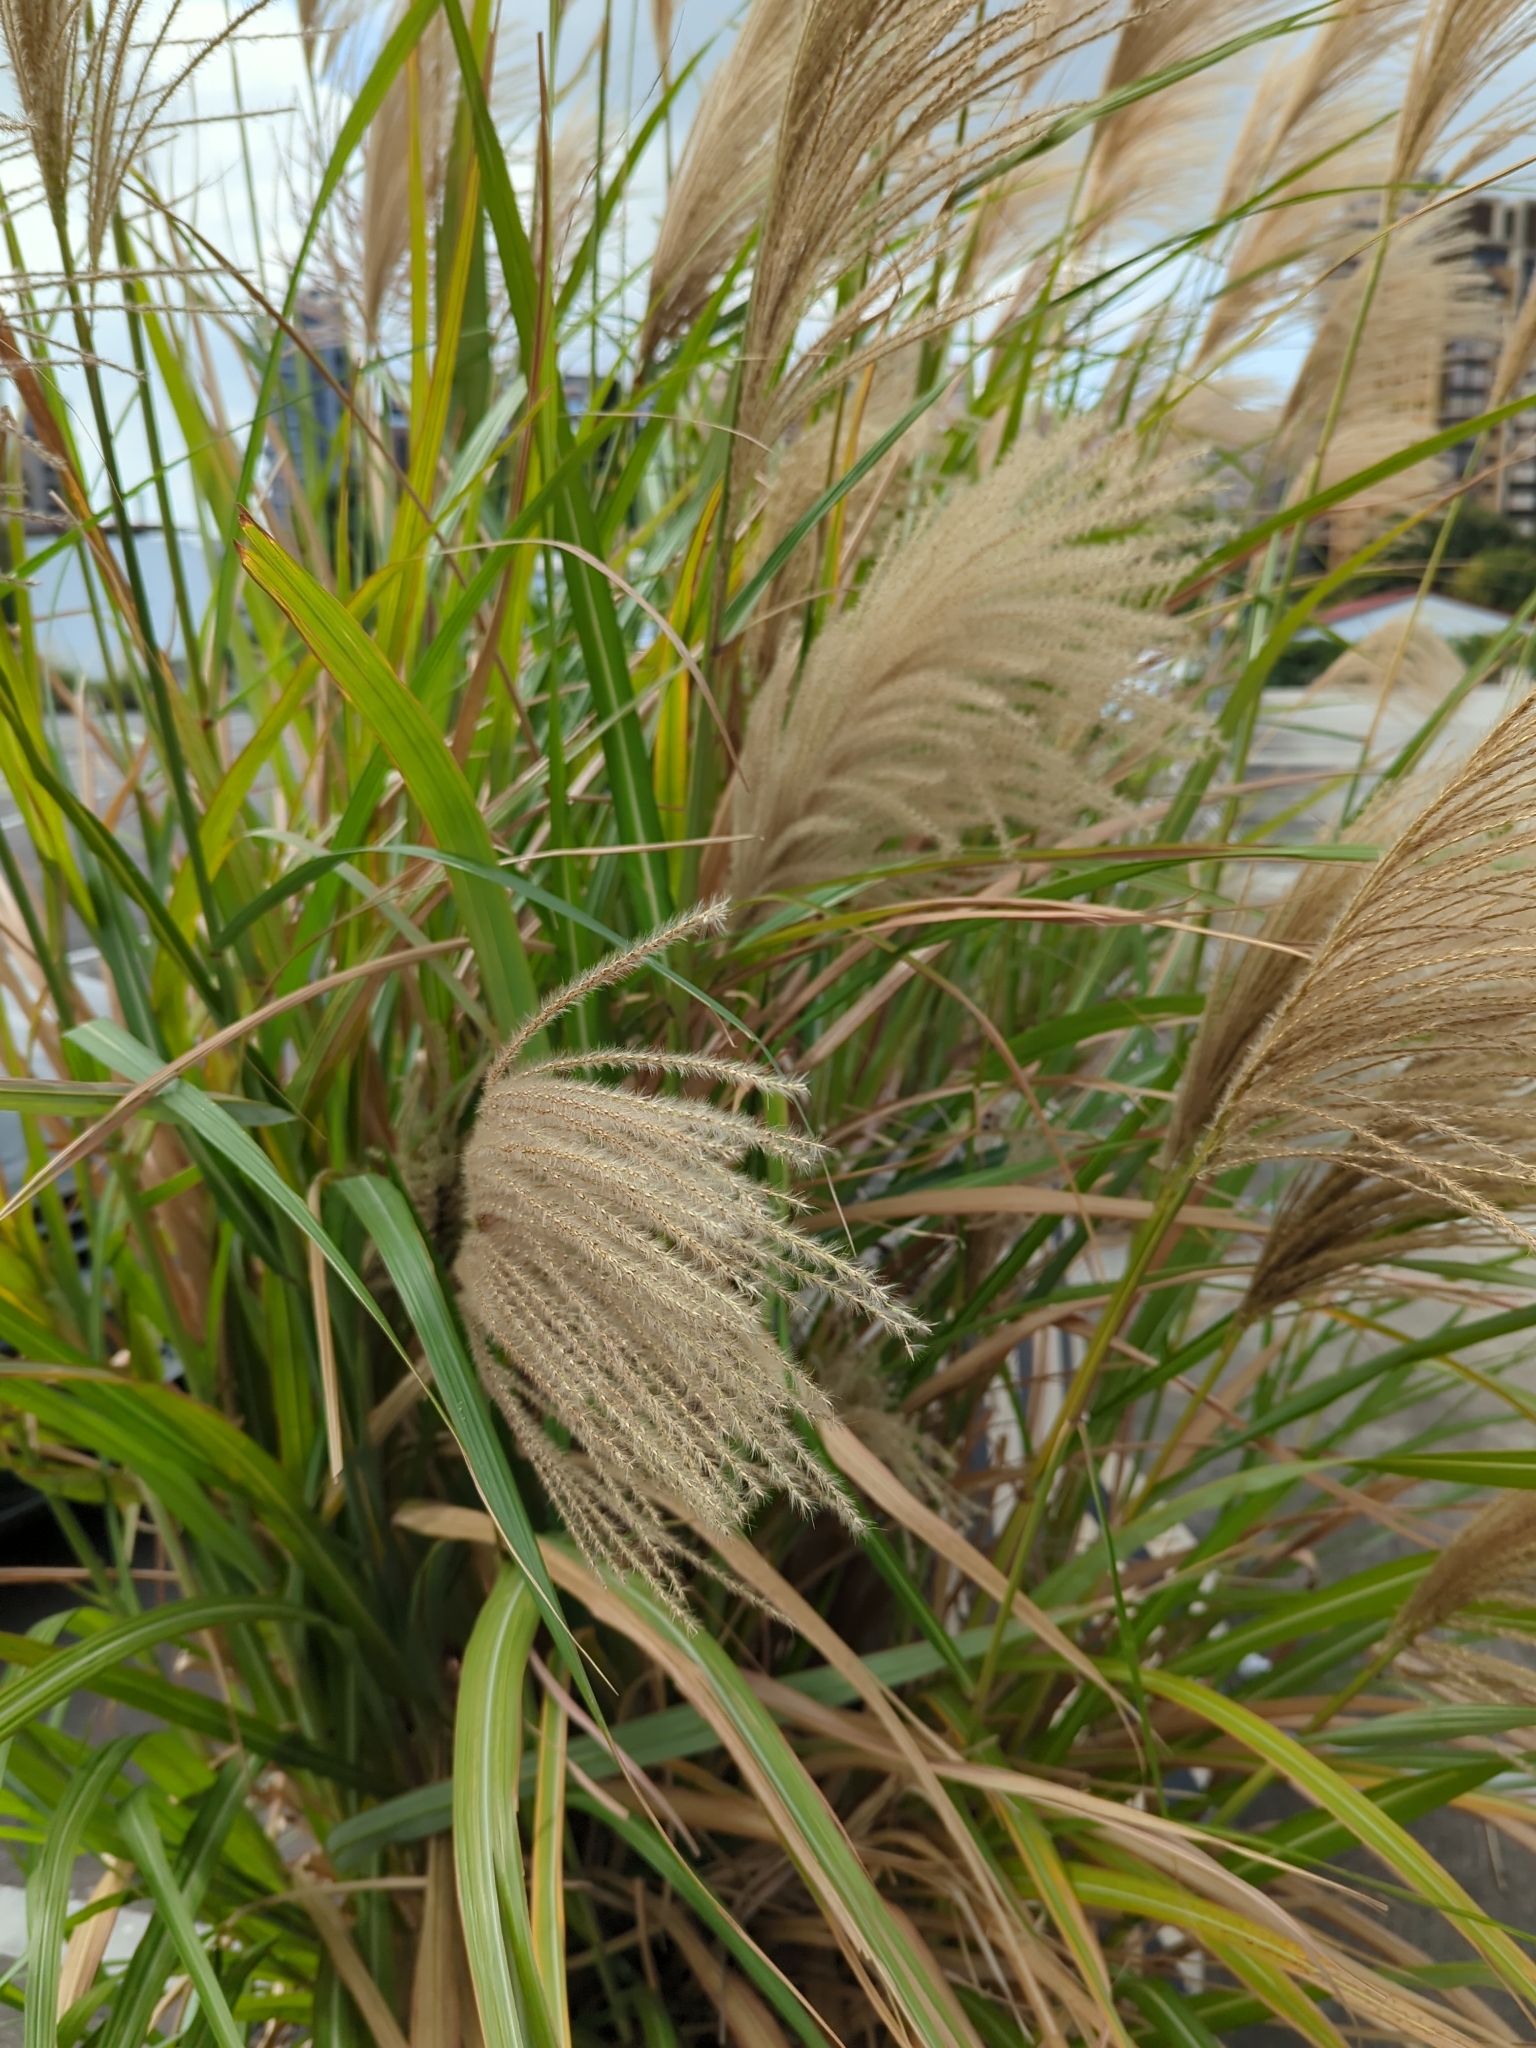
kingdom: Plantae
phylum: Tracheophyta
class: Liliopsida
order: Poales
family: Poaceae
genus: Miscanthus
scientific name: Miscanthus sinensis
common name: Chinese silvergrass
